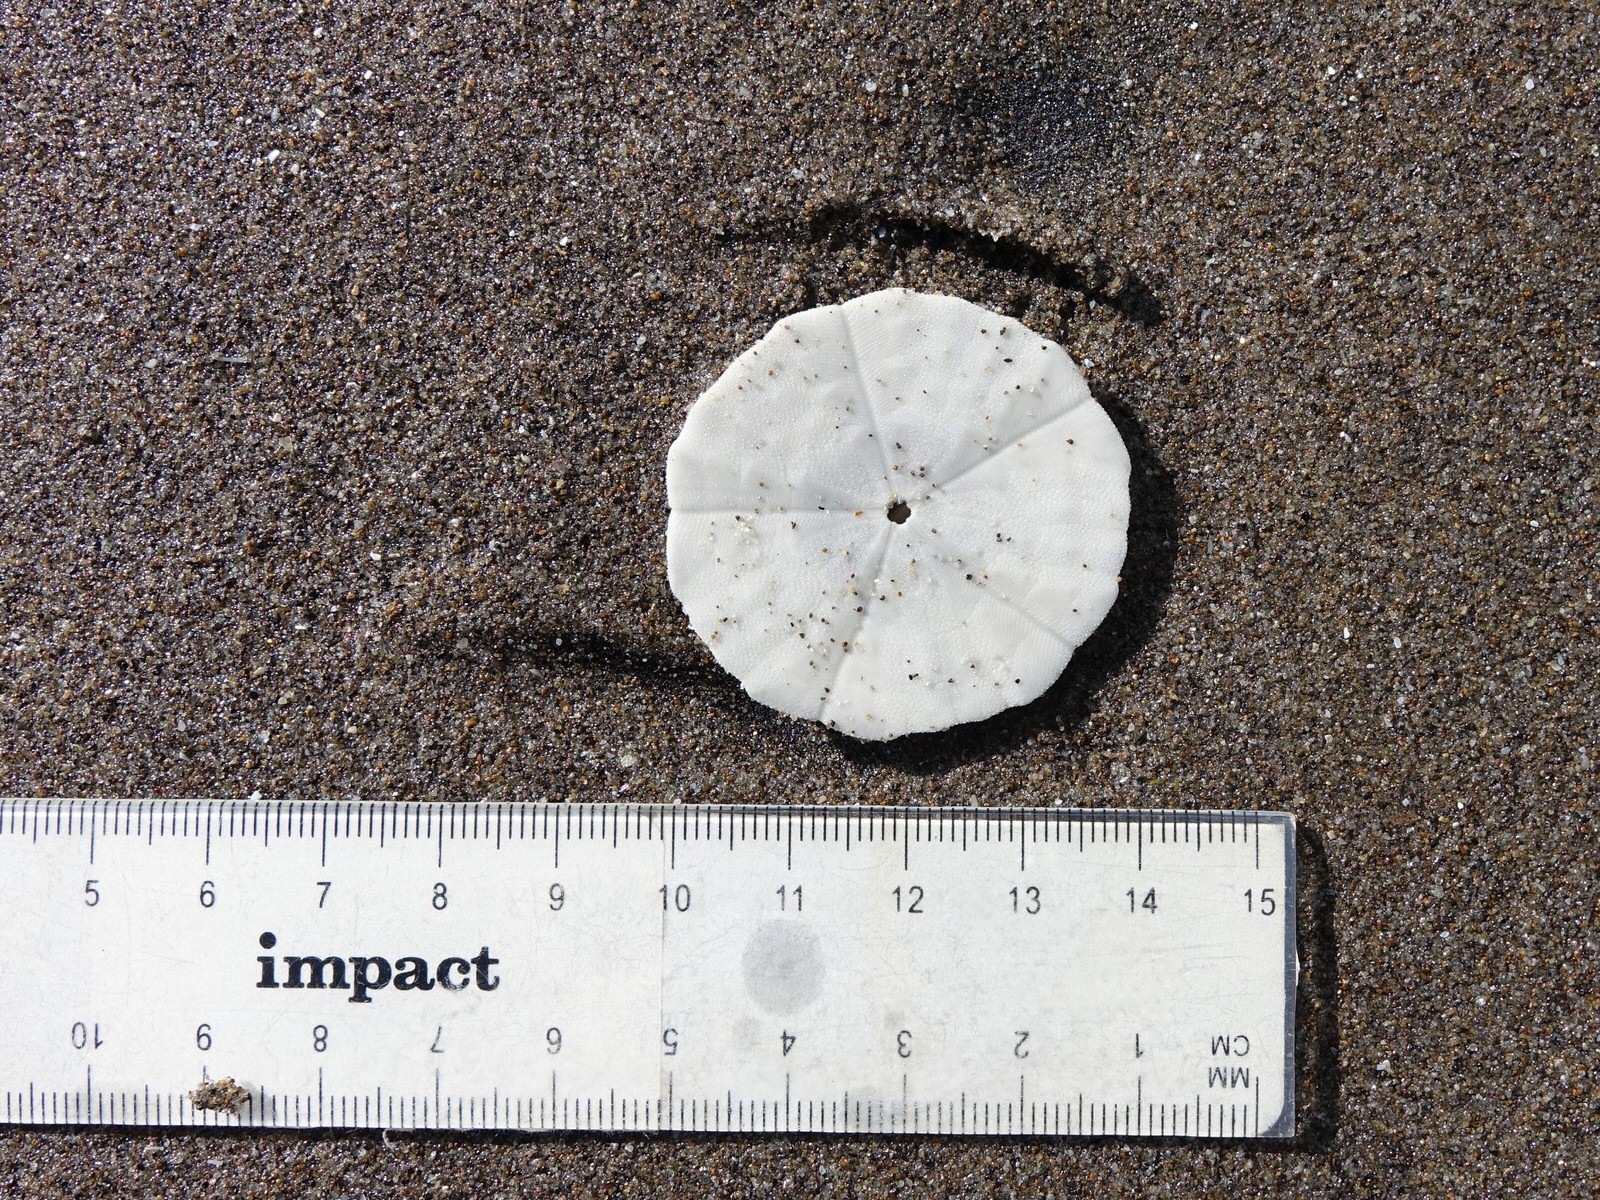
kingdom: Animalia
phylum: Echinodermata
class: Echinoidea
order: Clypeasteroida
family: Clypeasteridae
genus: Fellaster
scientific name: Fellaster zelandiae
